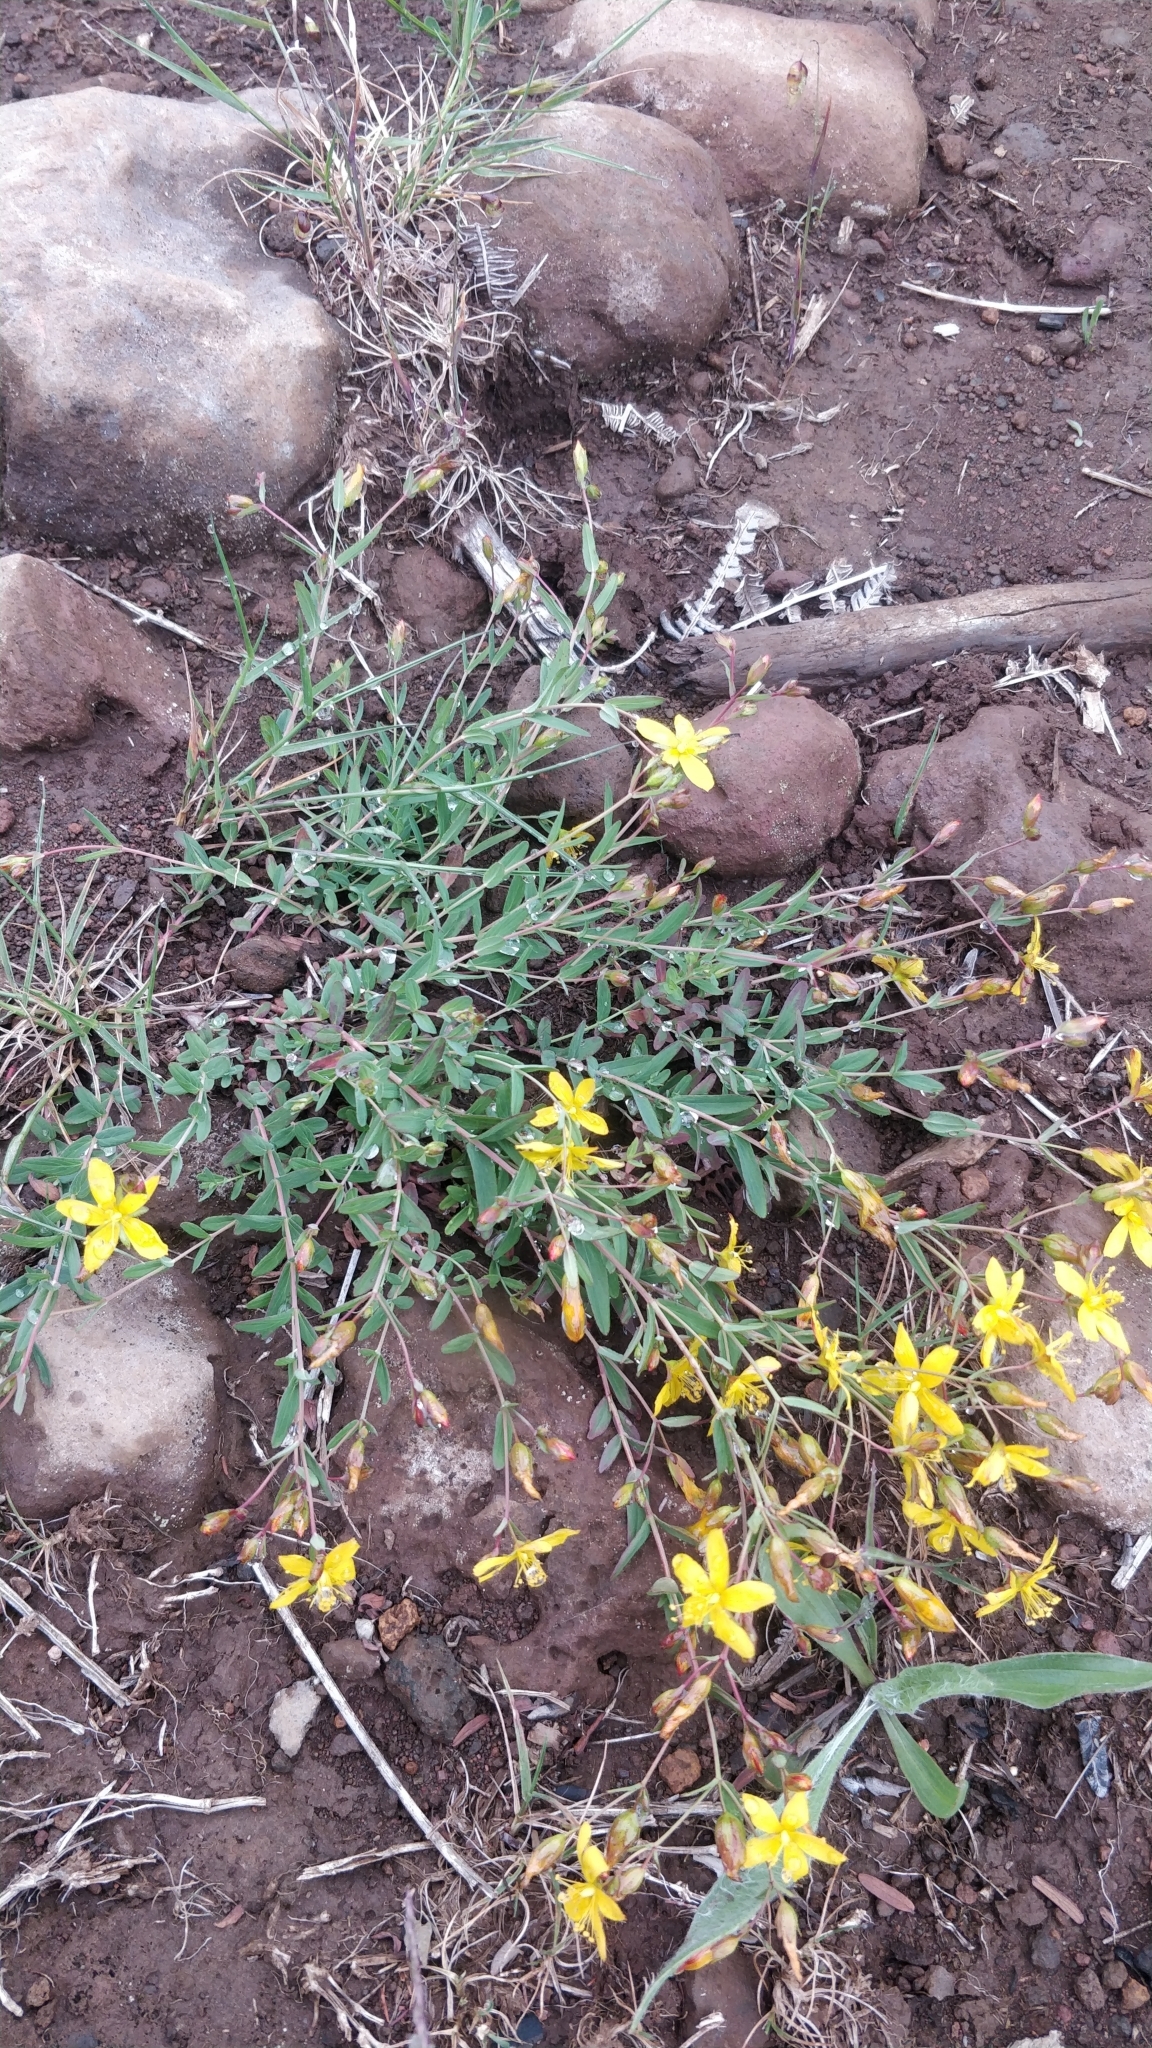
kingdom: Plantae
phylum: Tracheophyta
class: Magnoliopsida
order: Malpighiales
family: Hypericaceae
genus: Hypericum
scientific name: Hypericum linariifolium
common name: Toadflax-leaved st. john's-wort
